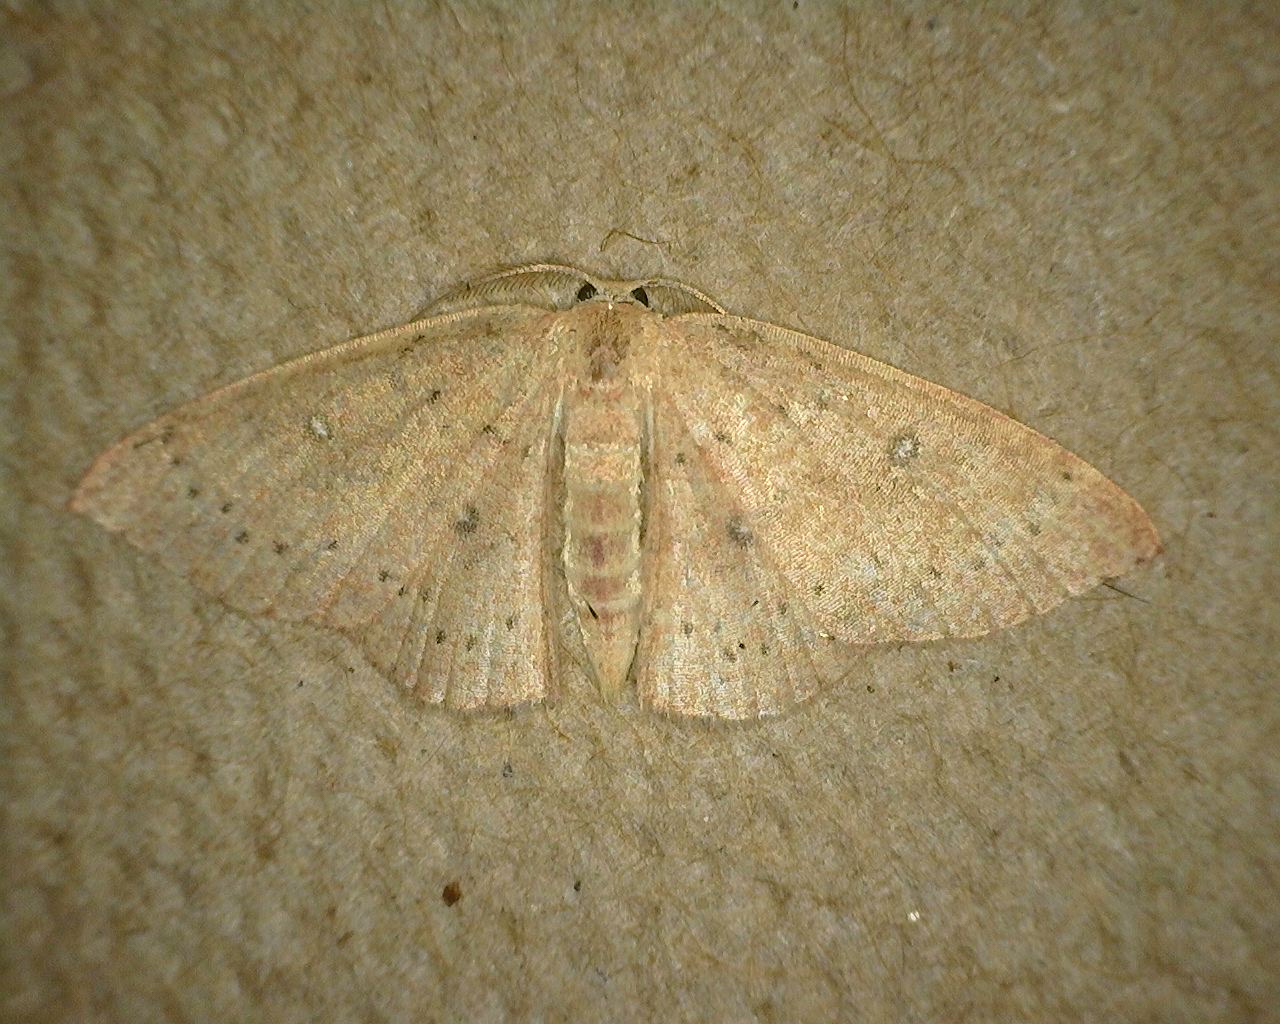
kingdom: Animalia
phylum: Arthropoda
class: Insecta
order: Lepidoptera
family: Geometridae
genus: Cyclophora
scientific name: Cyclophora packardi
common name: Packard's wave
